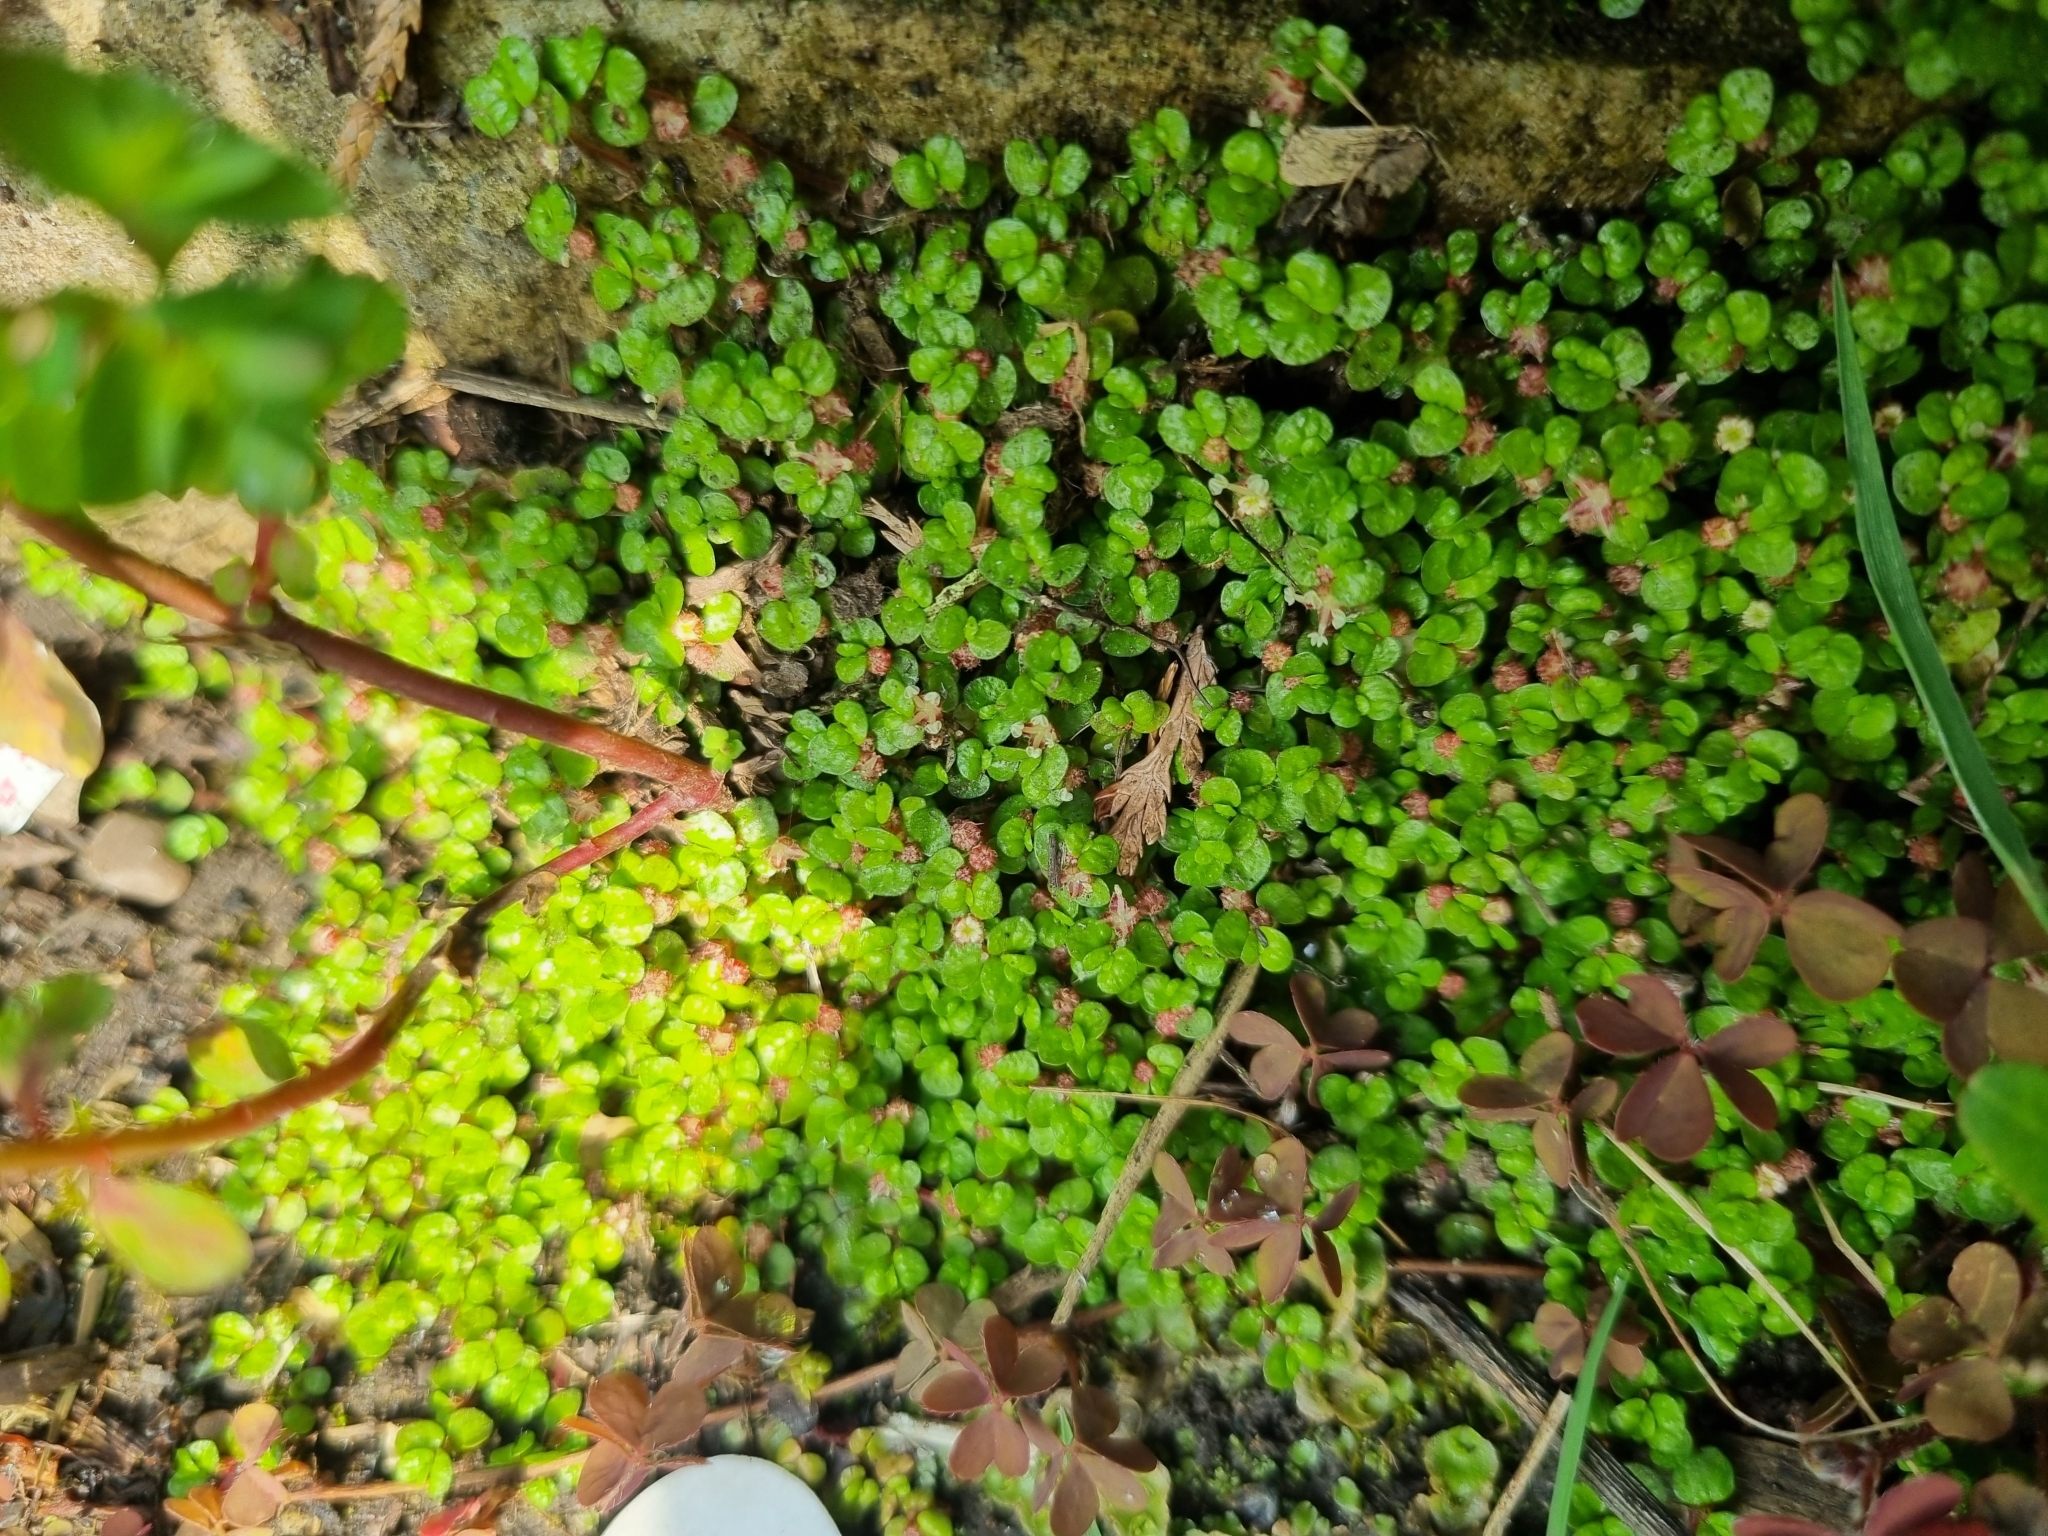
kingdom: Plantae
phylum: Tracheophyta
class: Magnoliopsida
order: Rosales
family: Urticaceae
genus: Soleirolia
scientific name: Soleirolia soleirolii
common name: Mind-your-own-business
